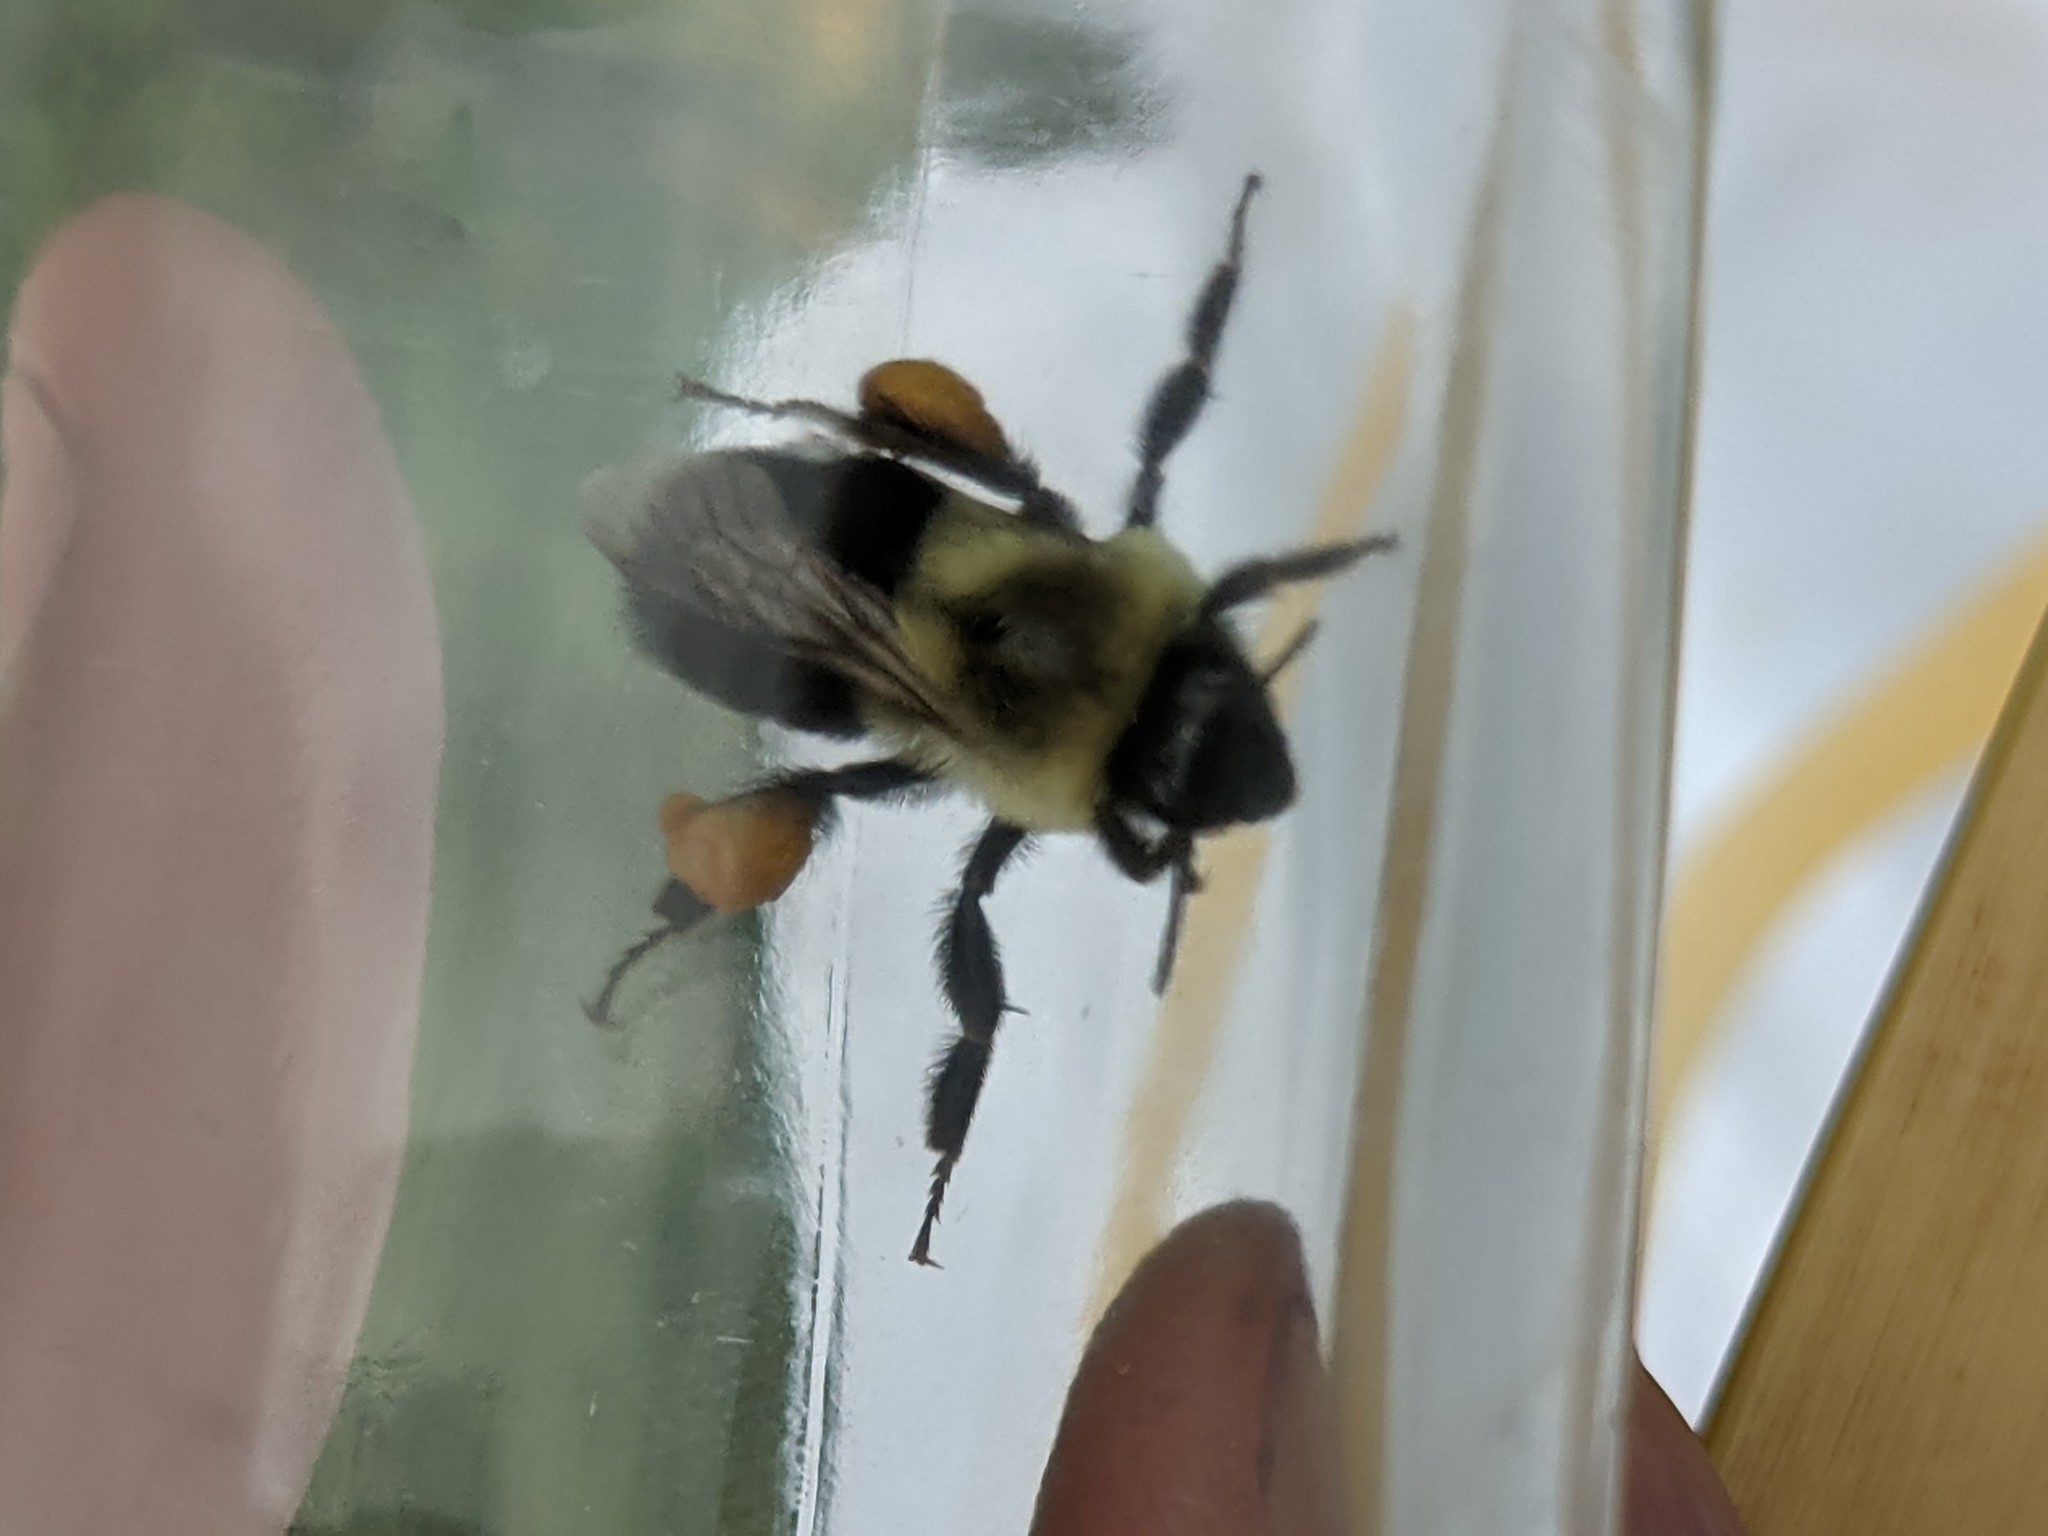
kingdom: Animalia
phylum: Arthropoda
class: Insecta
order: Hymenoptera
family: Apidae
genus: Bombus
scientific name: Bombus impatiens
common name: Common eastern bumble bee
